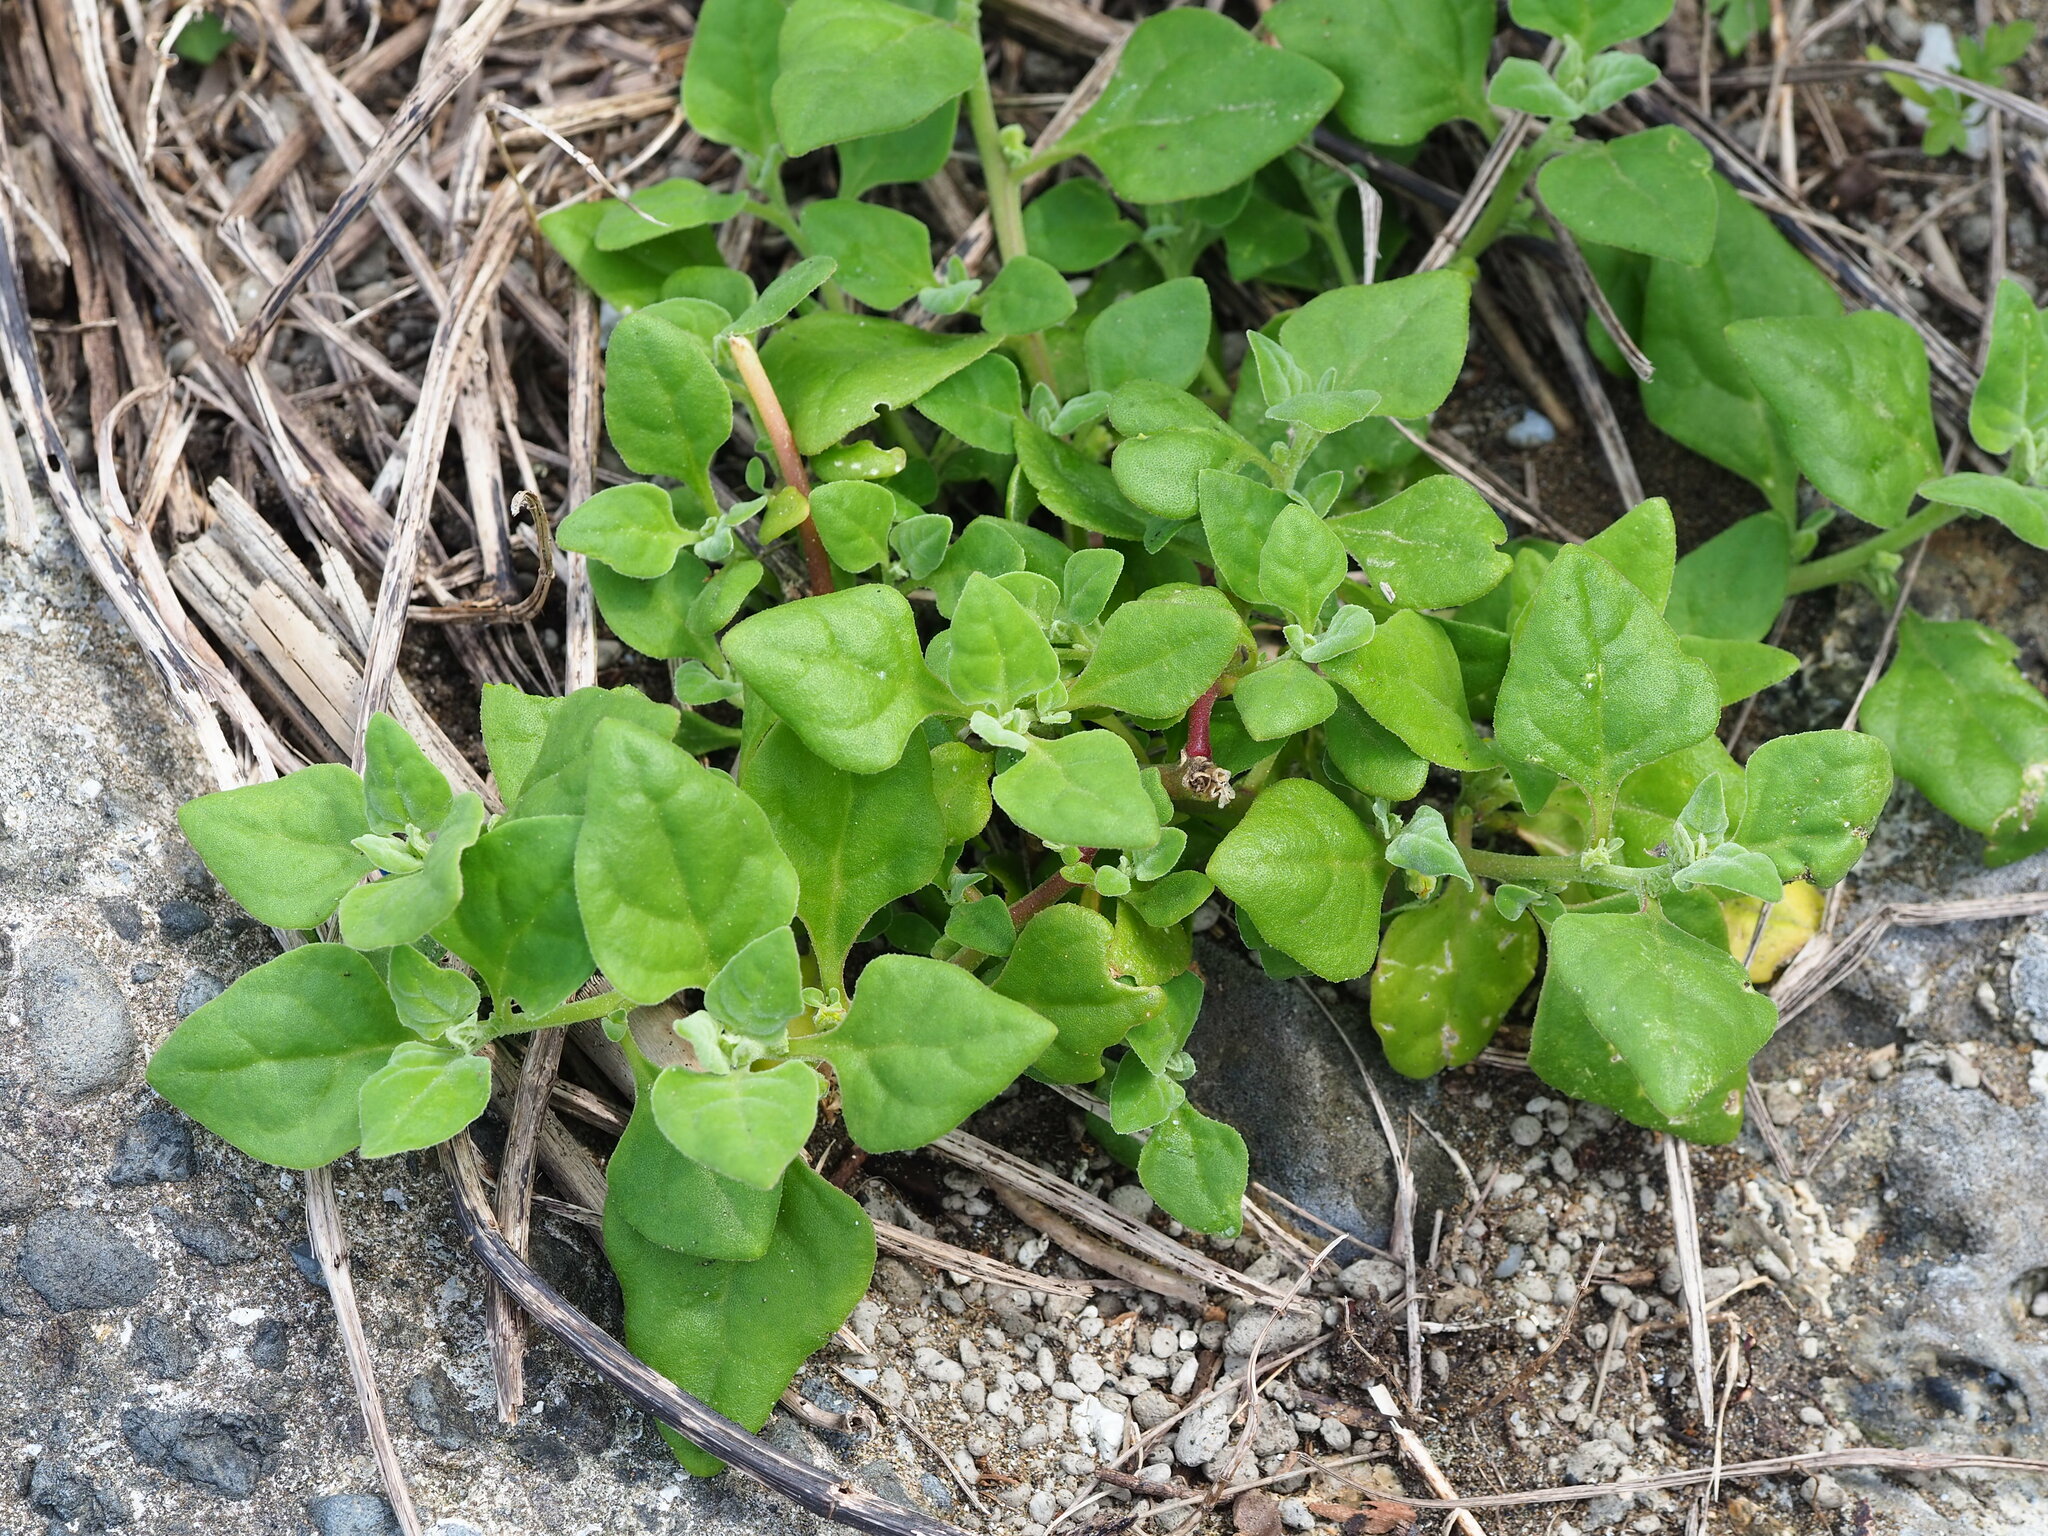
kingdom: Plantae
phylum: Tracheophyta
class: Magnoliopsida
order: Caryophyllales
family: Aizoaceae
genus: Tetragonia
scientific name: Tetragonia tetragonoides
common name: New zealand-spinach
